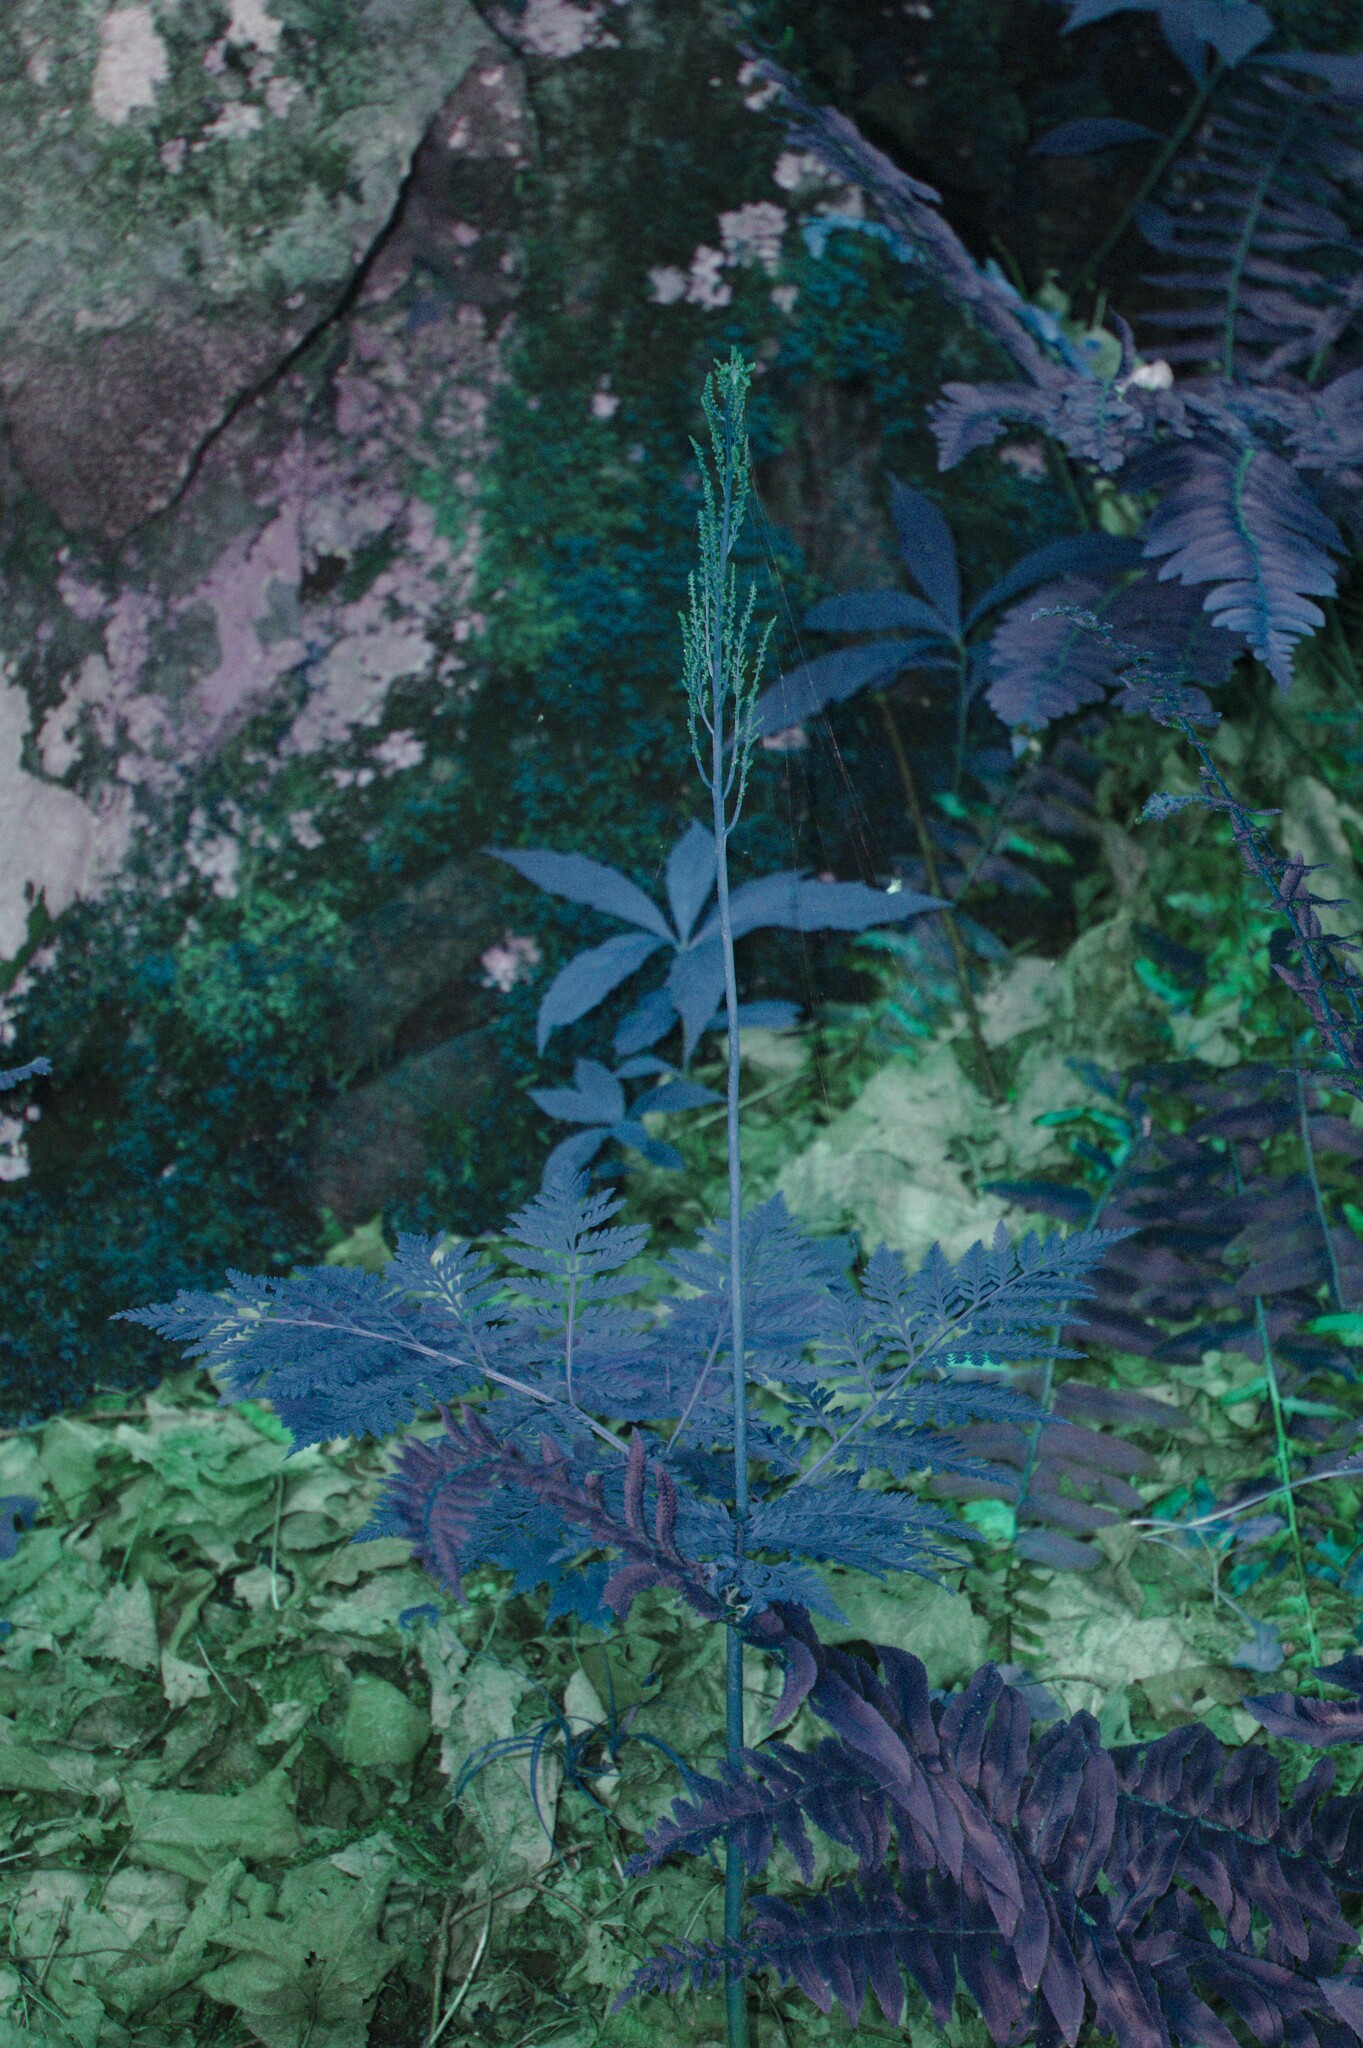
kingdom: Plantae
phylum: Tracheophyta
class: Polypodiopsida
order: Ophioglossales
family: Ophioglossaceae
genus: Botrypus
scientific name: Botrypus virginianus
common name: Common grapefern
